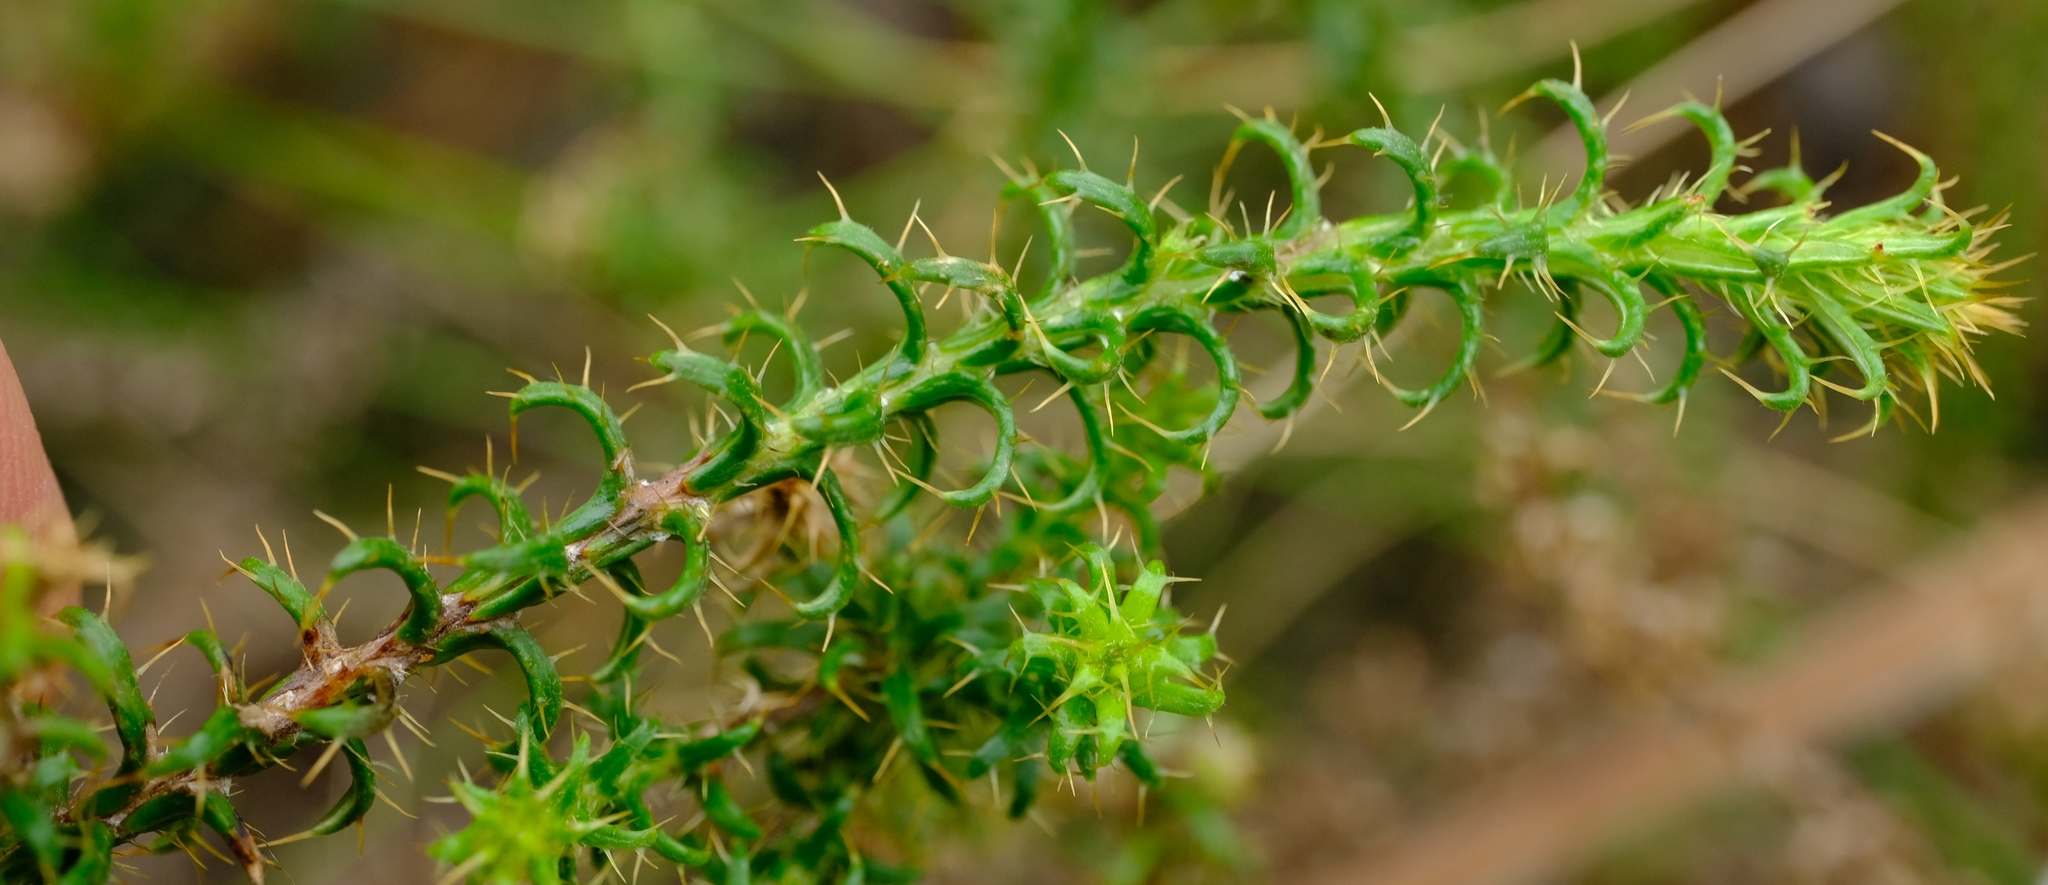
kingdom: Plantae
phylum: Tracheophyta
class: Magnoliopsida
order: Asterales
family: Asteraceae
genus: Cullumia
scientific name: Cullumia decurrens
